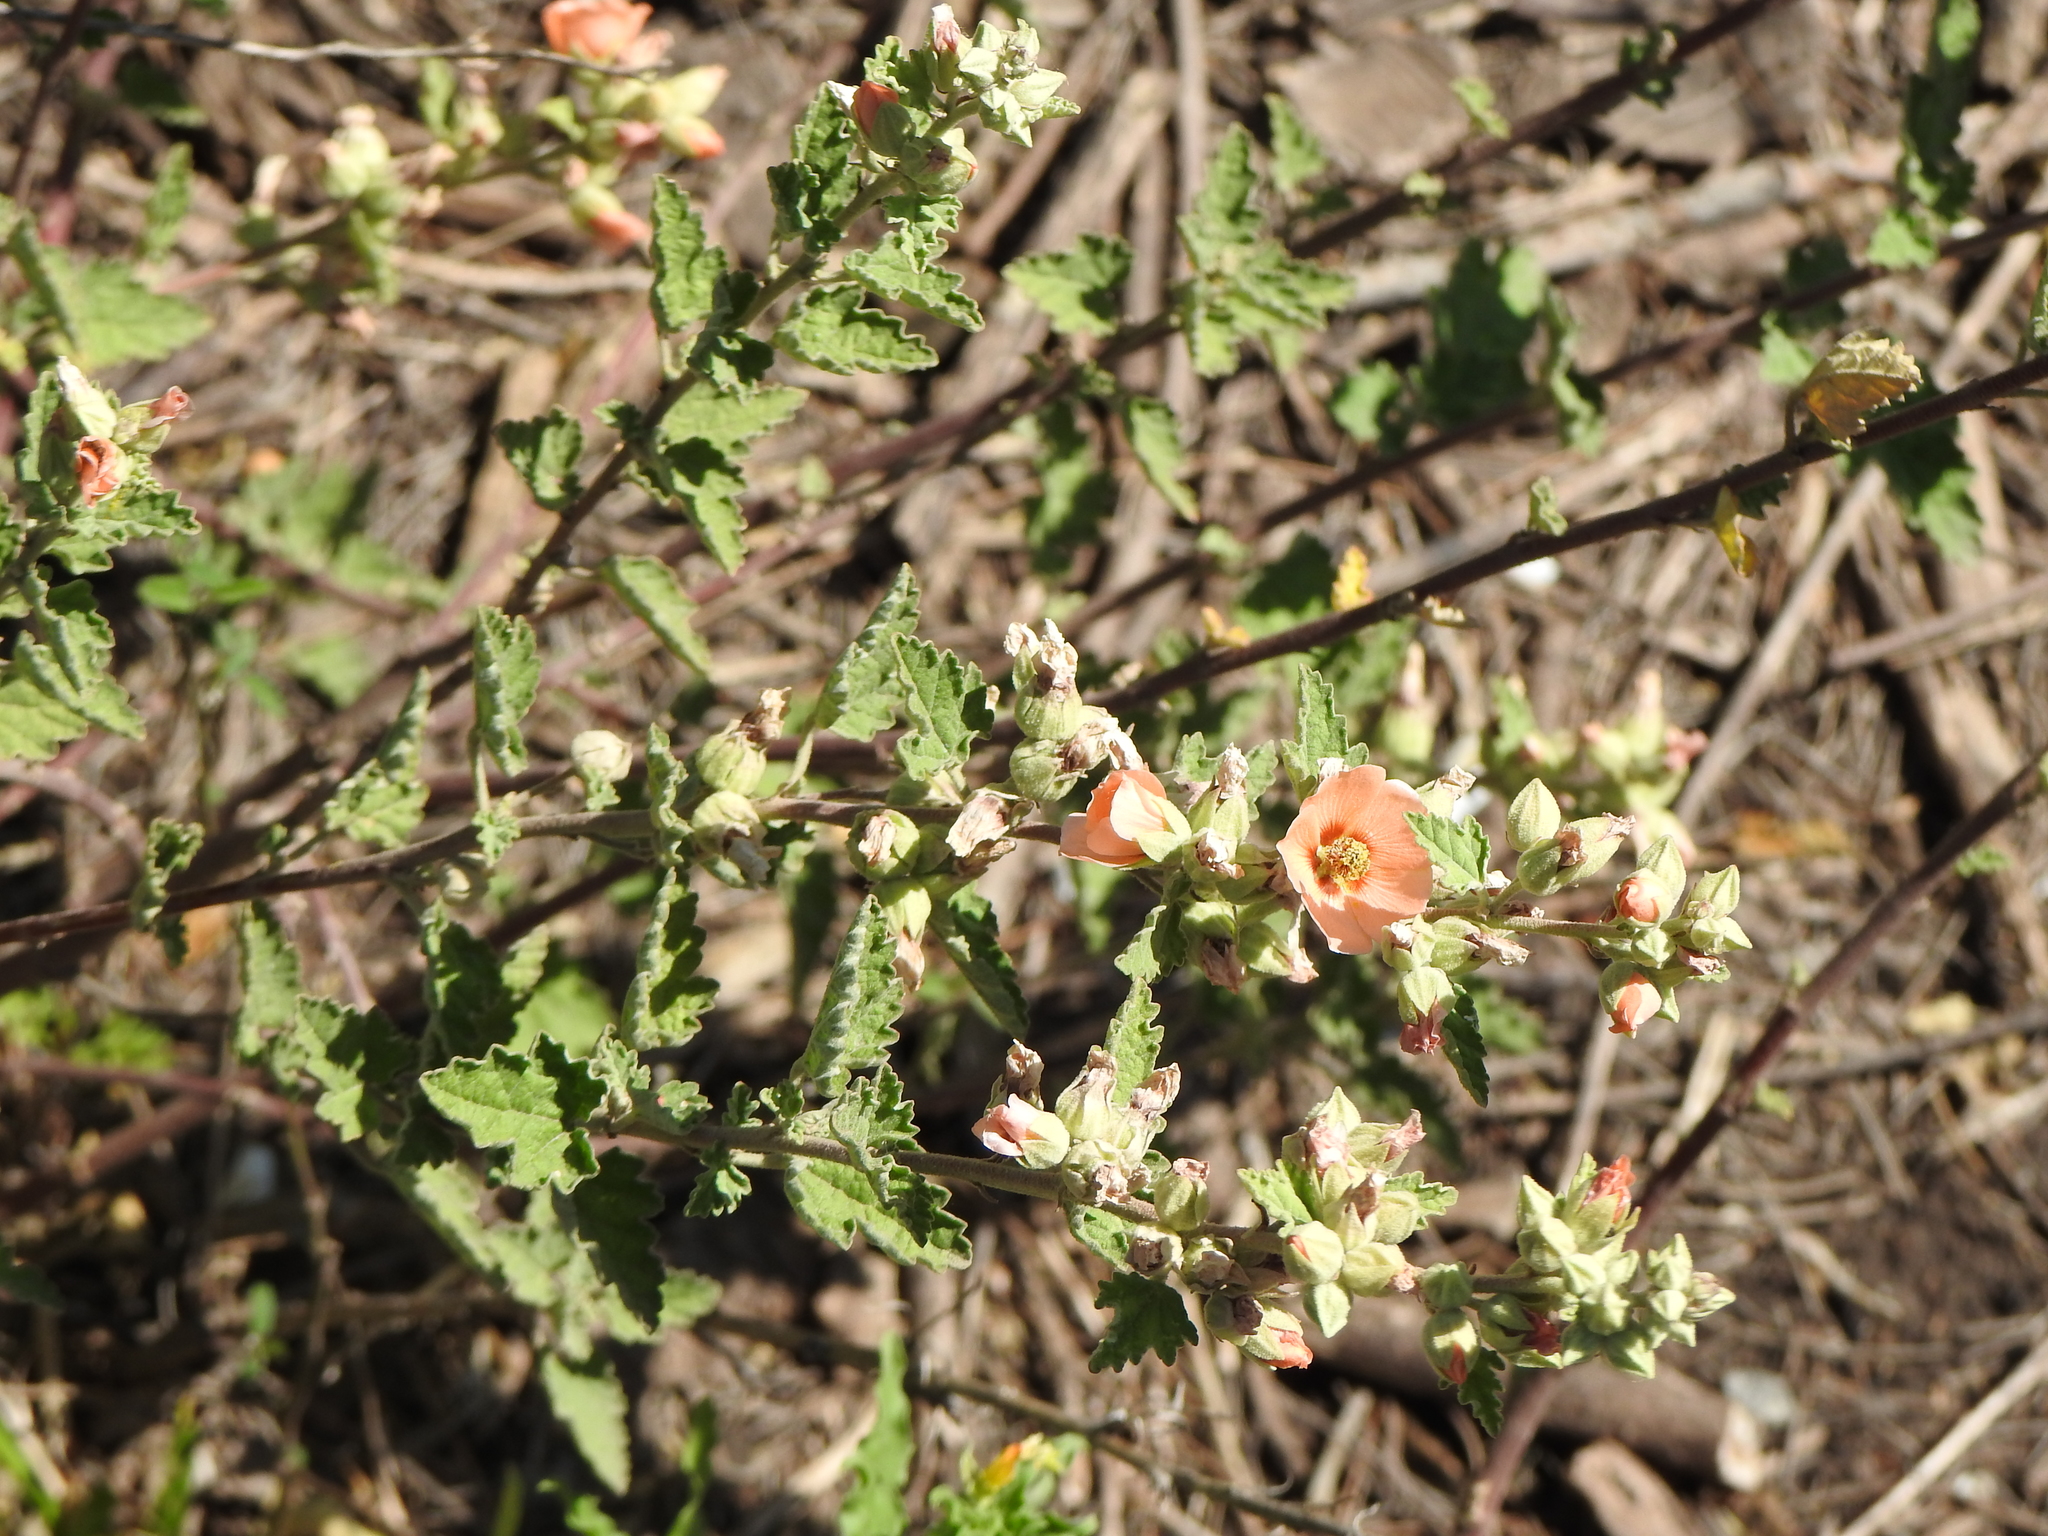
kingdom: Plantae
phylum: Tracheophyta
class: Magnoliopsida
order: Malvales
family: Malvaceae
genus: Sphaeralcea
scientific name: Sphaeralcea bonariensis
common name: Latin globemallow
